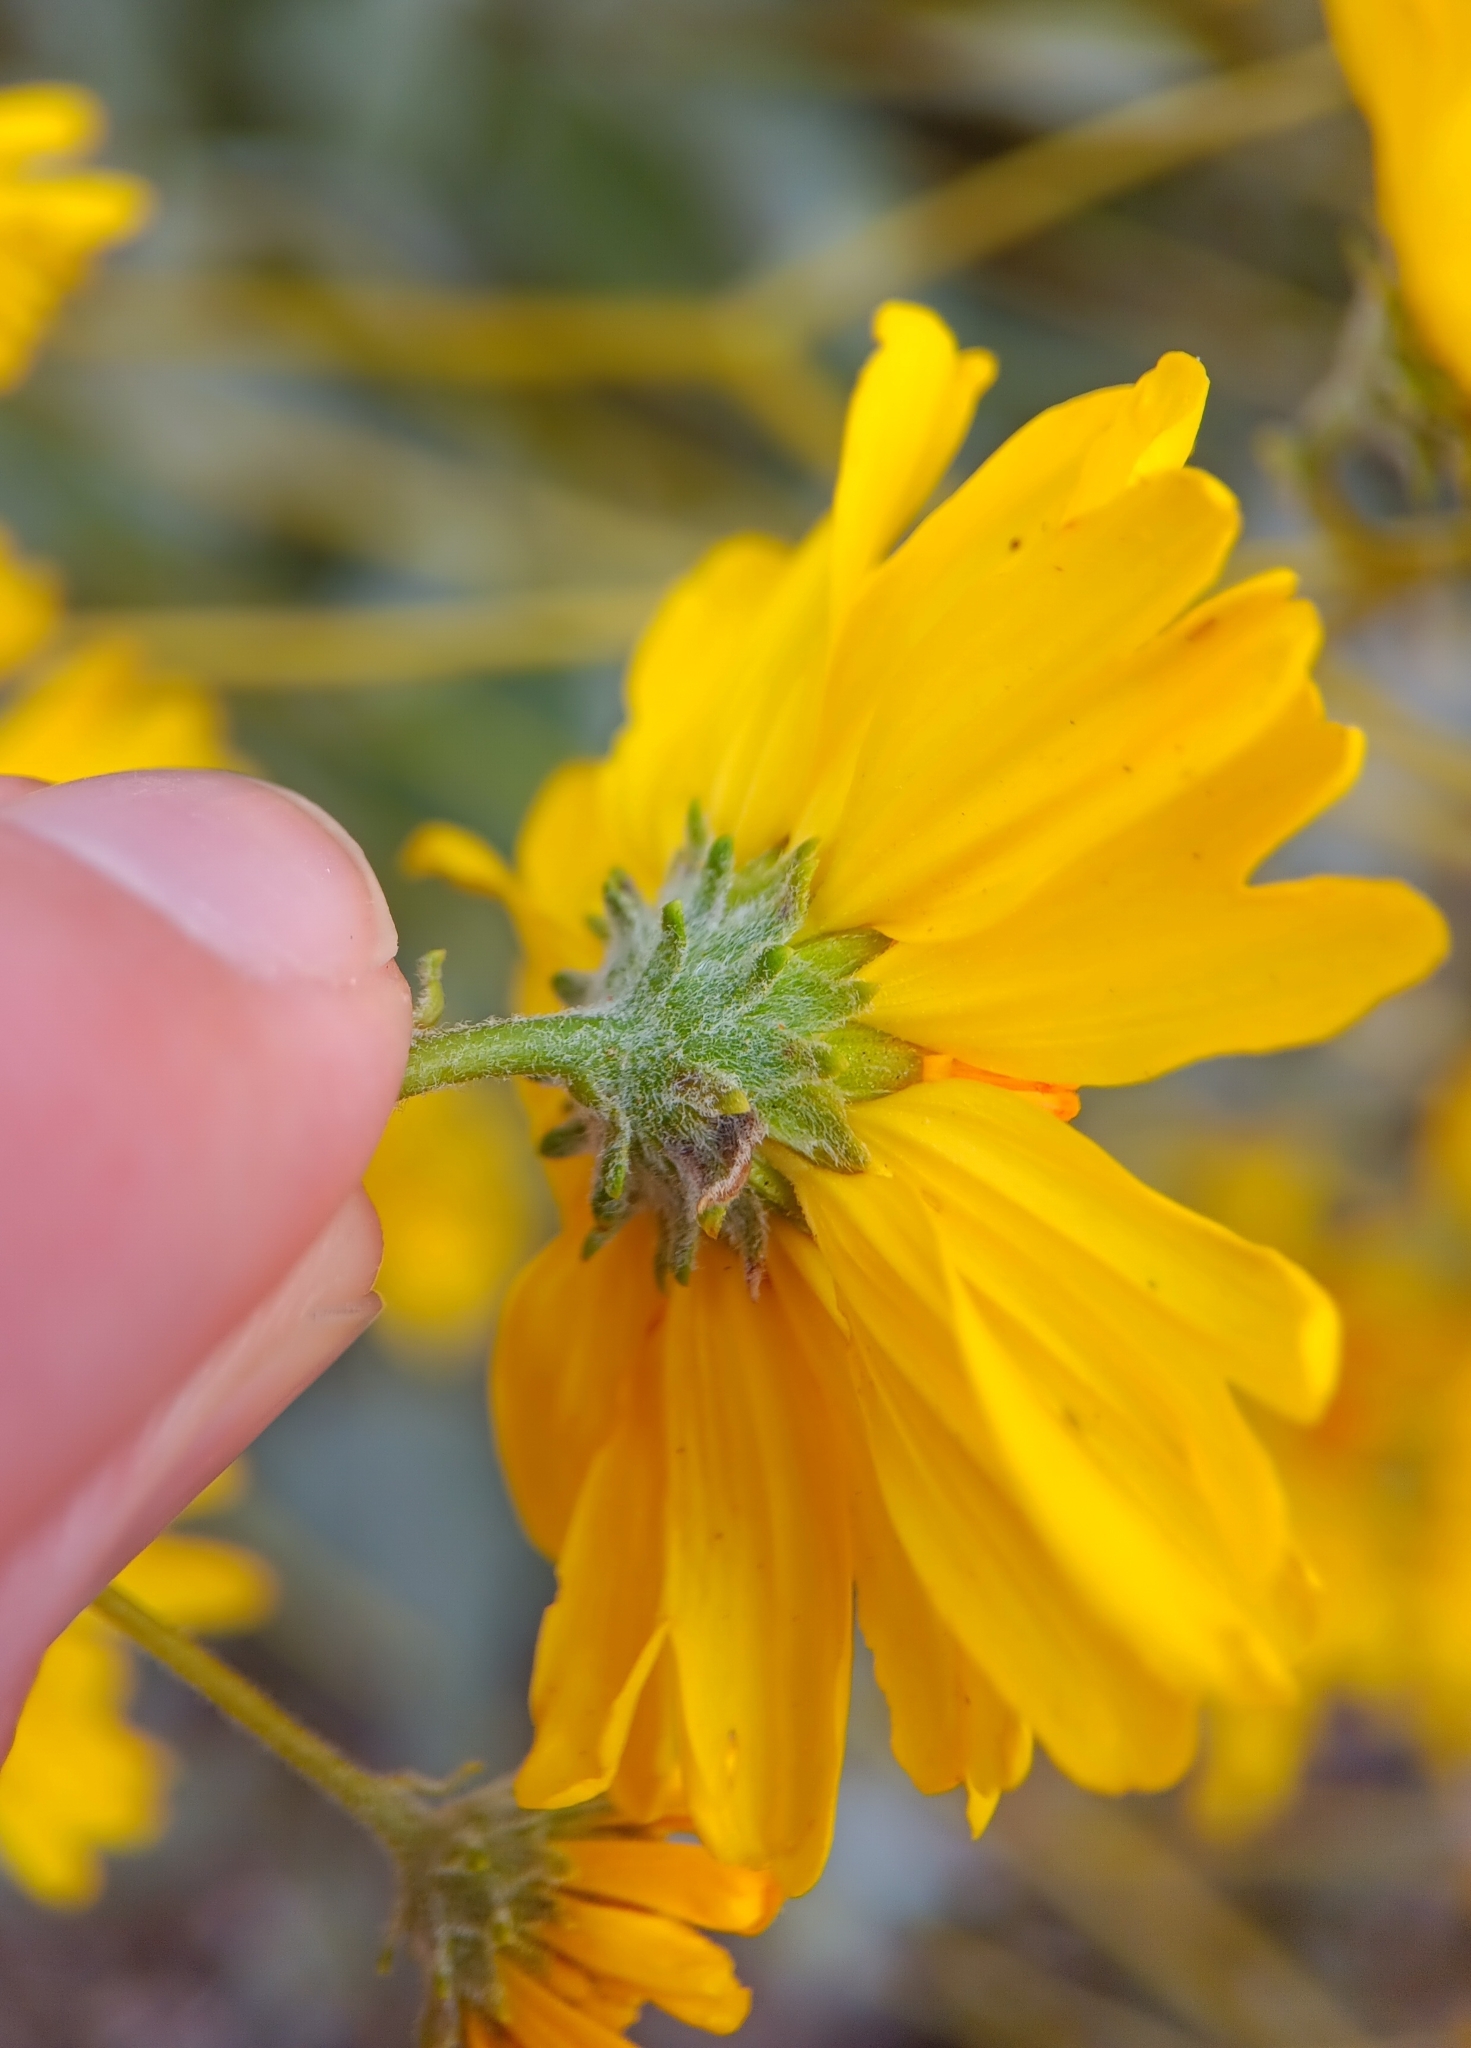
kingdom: Plantae
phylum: Tracheophyta
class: Magnoliopsida
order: Asterales
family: Asteraceae
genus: Encelia
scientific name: Encelia farinosa
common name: Brittlebush
